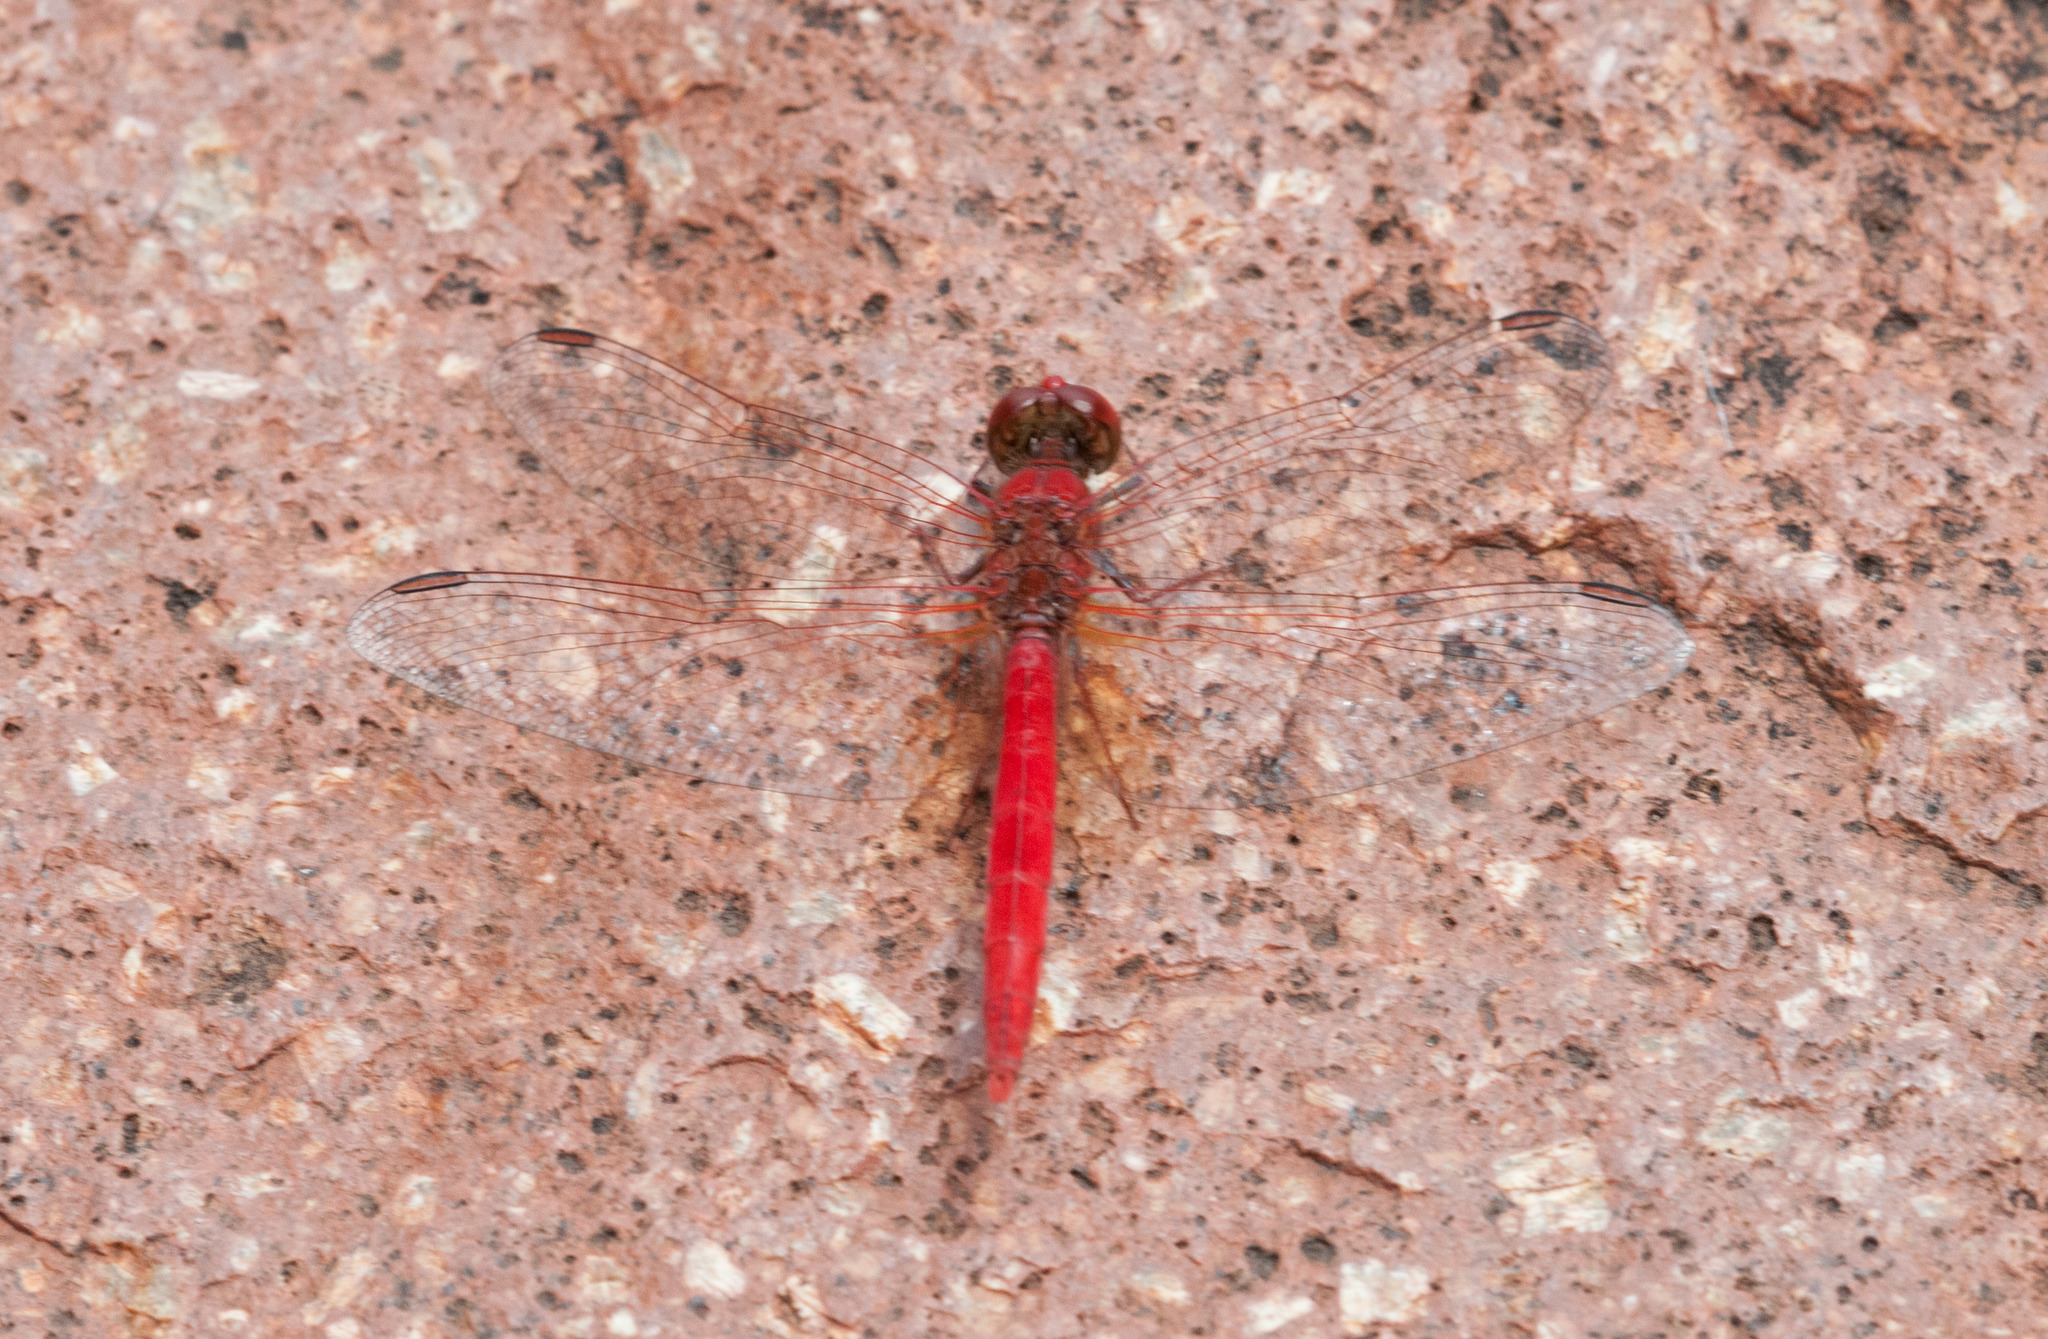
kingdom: Animalia
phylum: Arthropoda
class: Insecta
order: Odonata
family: Libellulidae
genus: Diplacodes
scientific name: Diplacodes haematodes
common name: Scarlet percher
